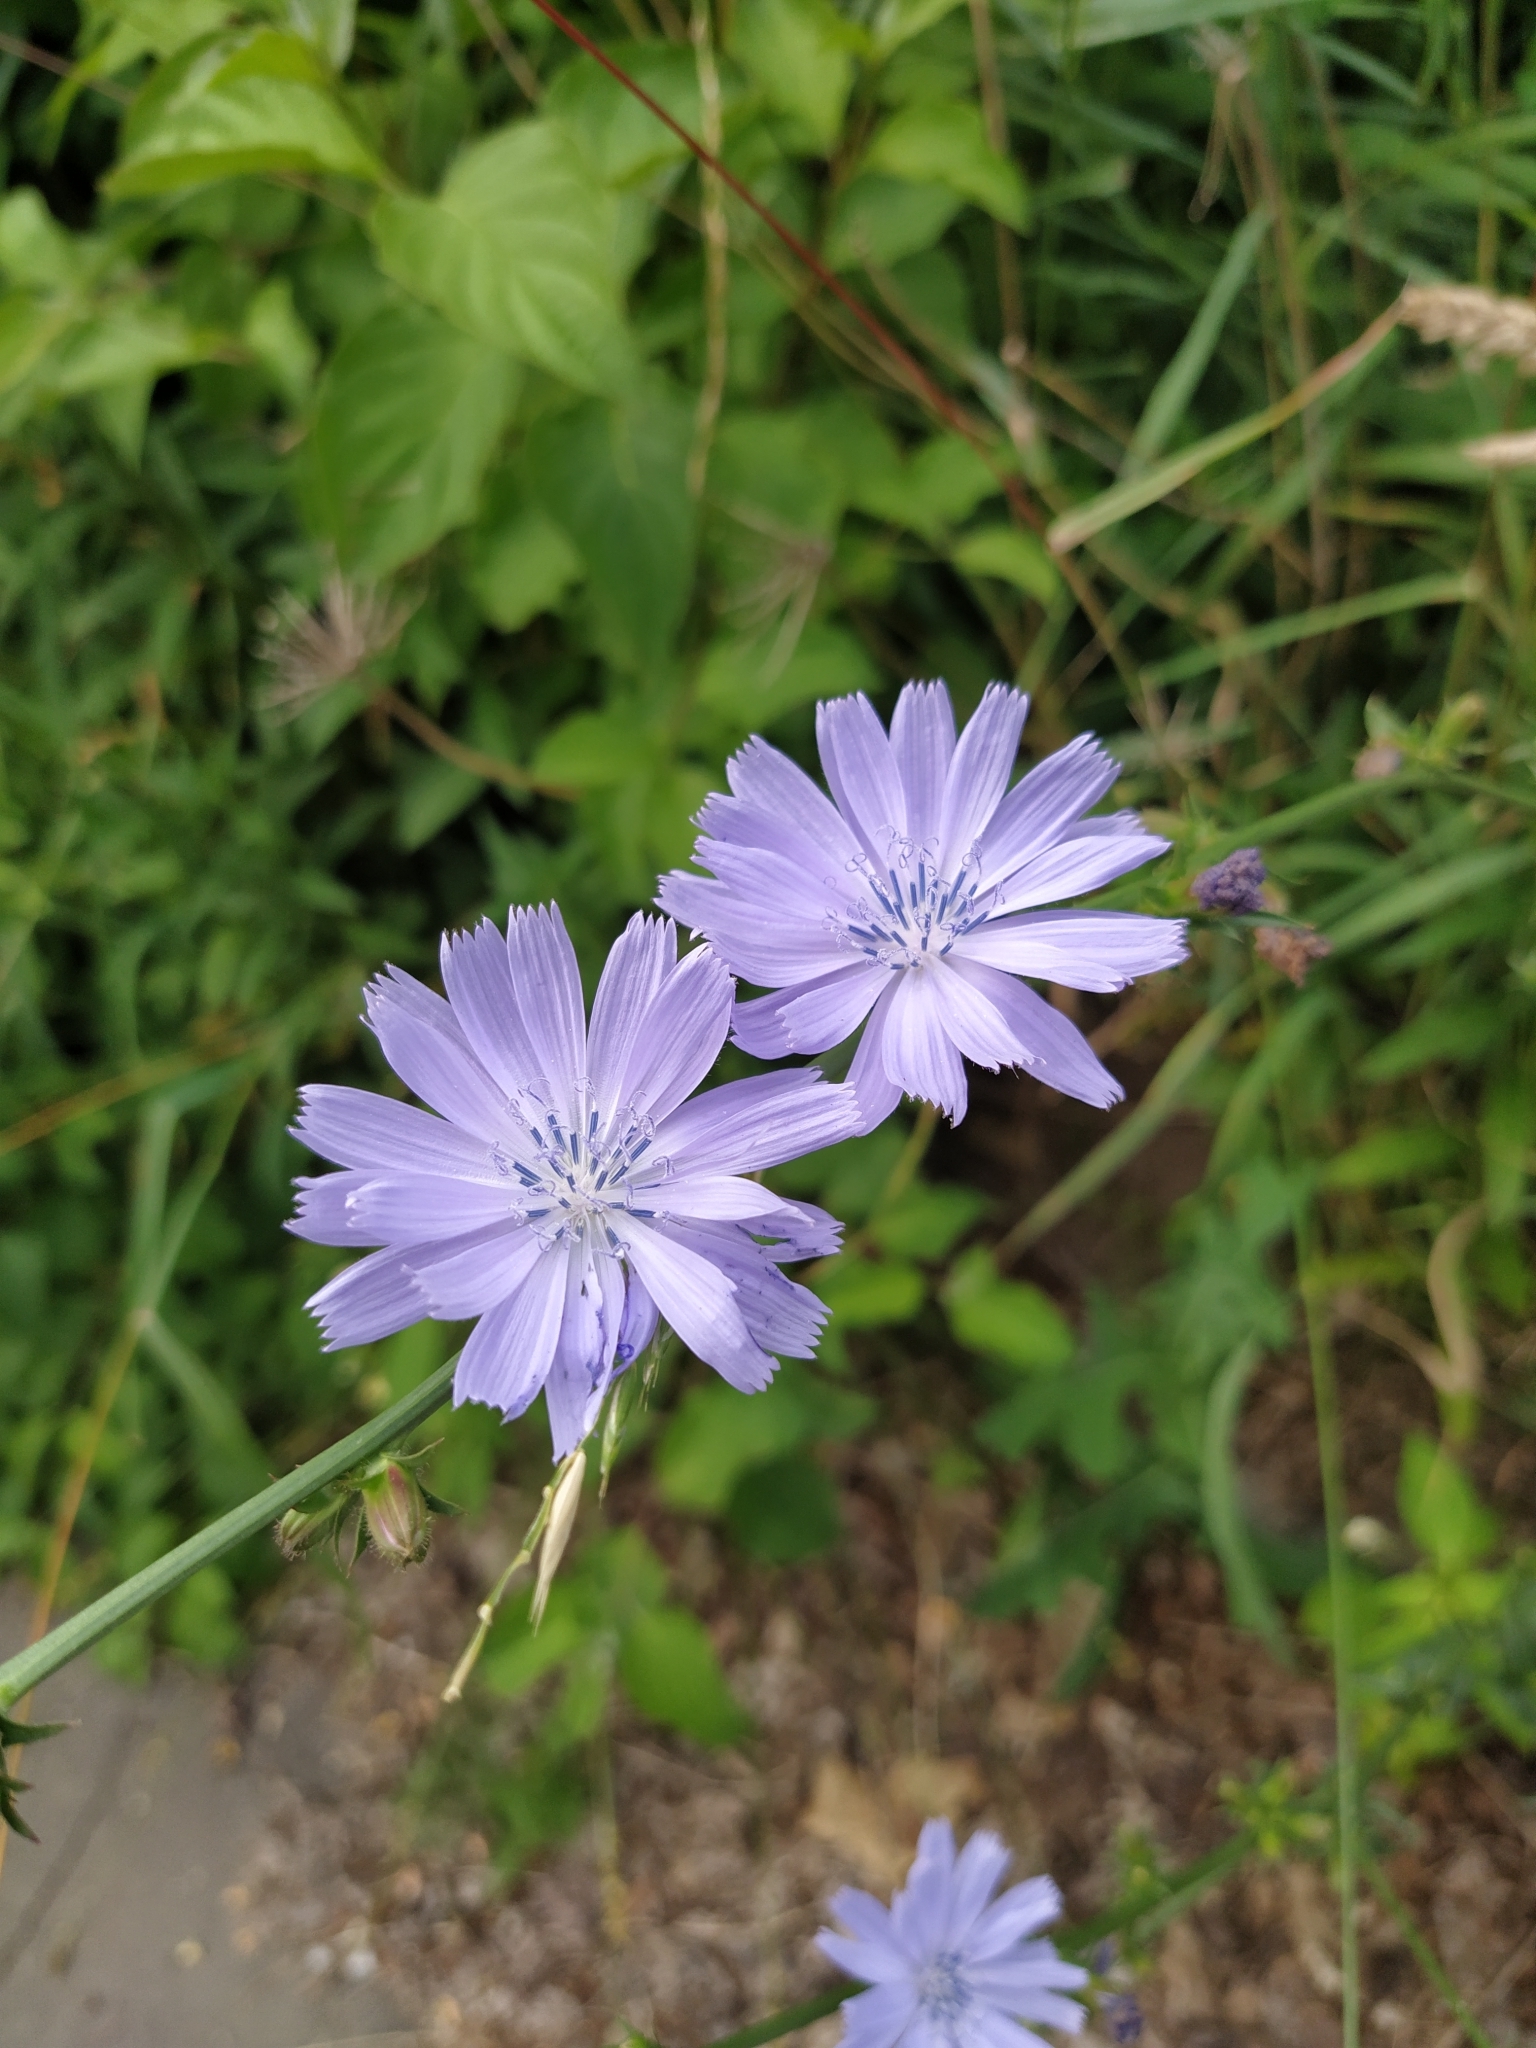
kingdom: Plantae
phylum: Tracheophyta
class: Magnoliopsida
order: Asterales
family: Asteraceae
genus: Cichorium
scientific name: Cichorium intybus
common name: Chicory
